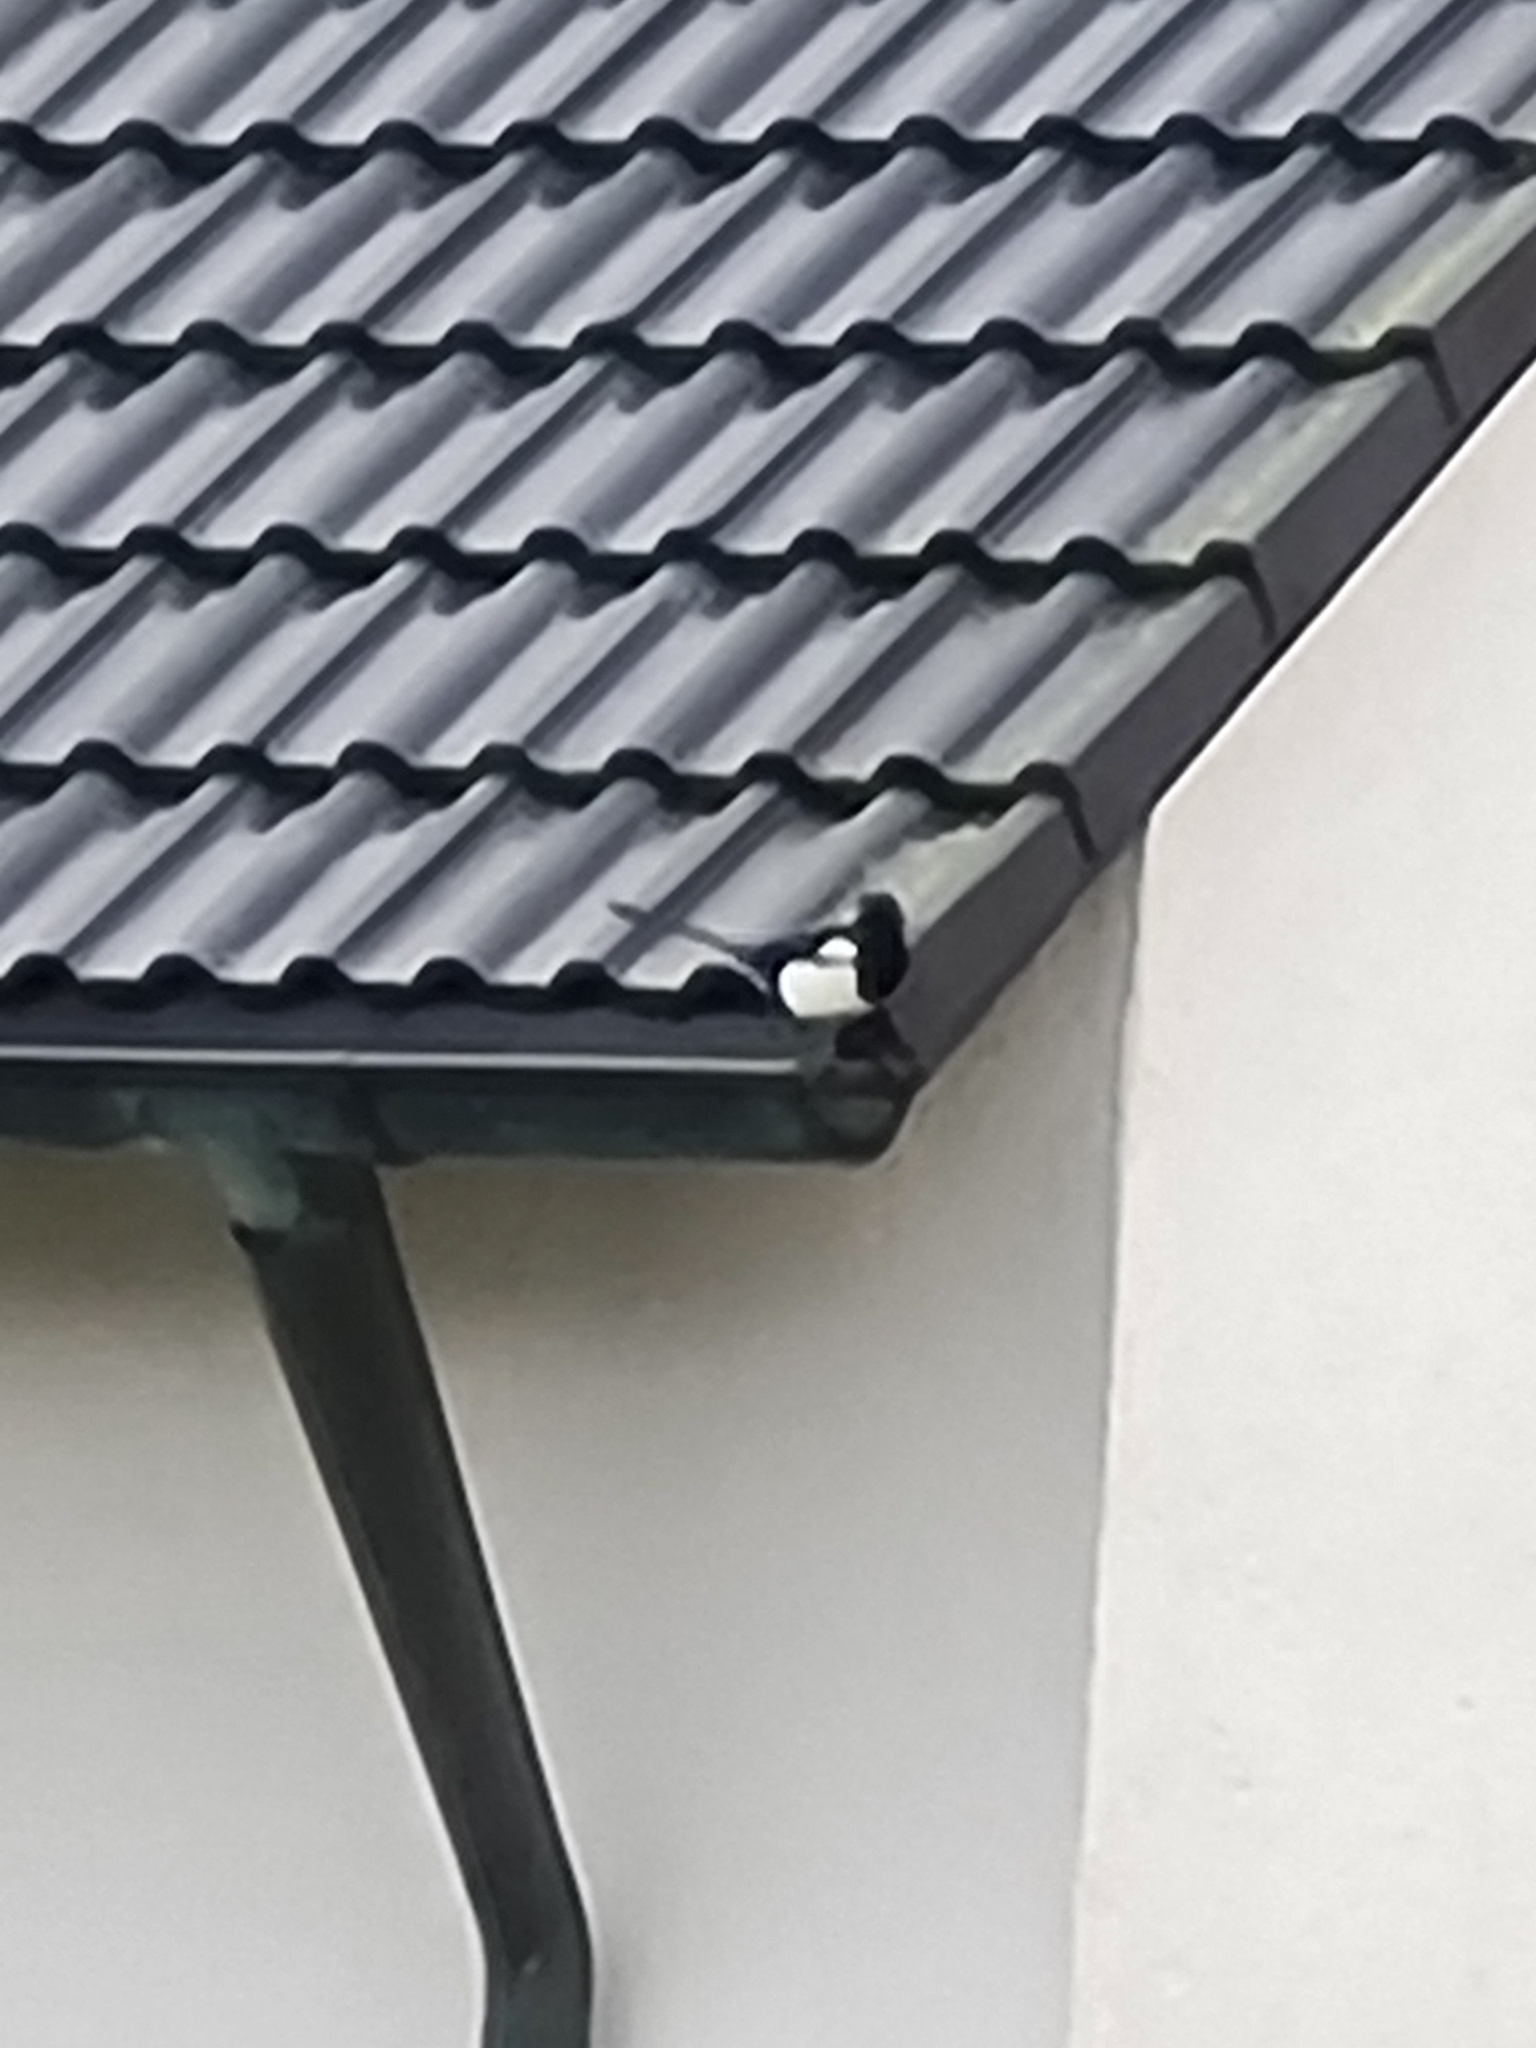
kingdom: Animalia
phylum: Chordata
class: Aves
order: Passeriformes
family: Corvidae
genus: Pica
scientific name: Pica pica
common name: Eurasian magpie
